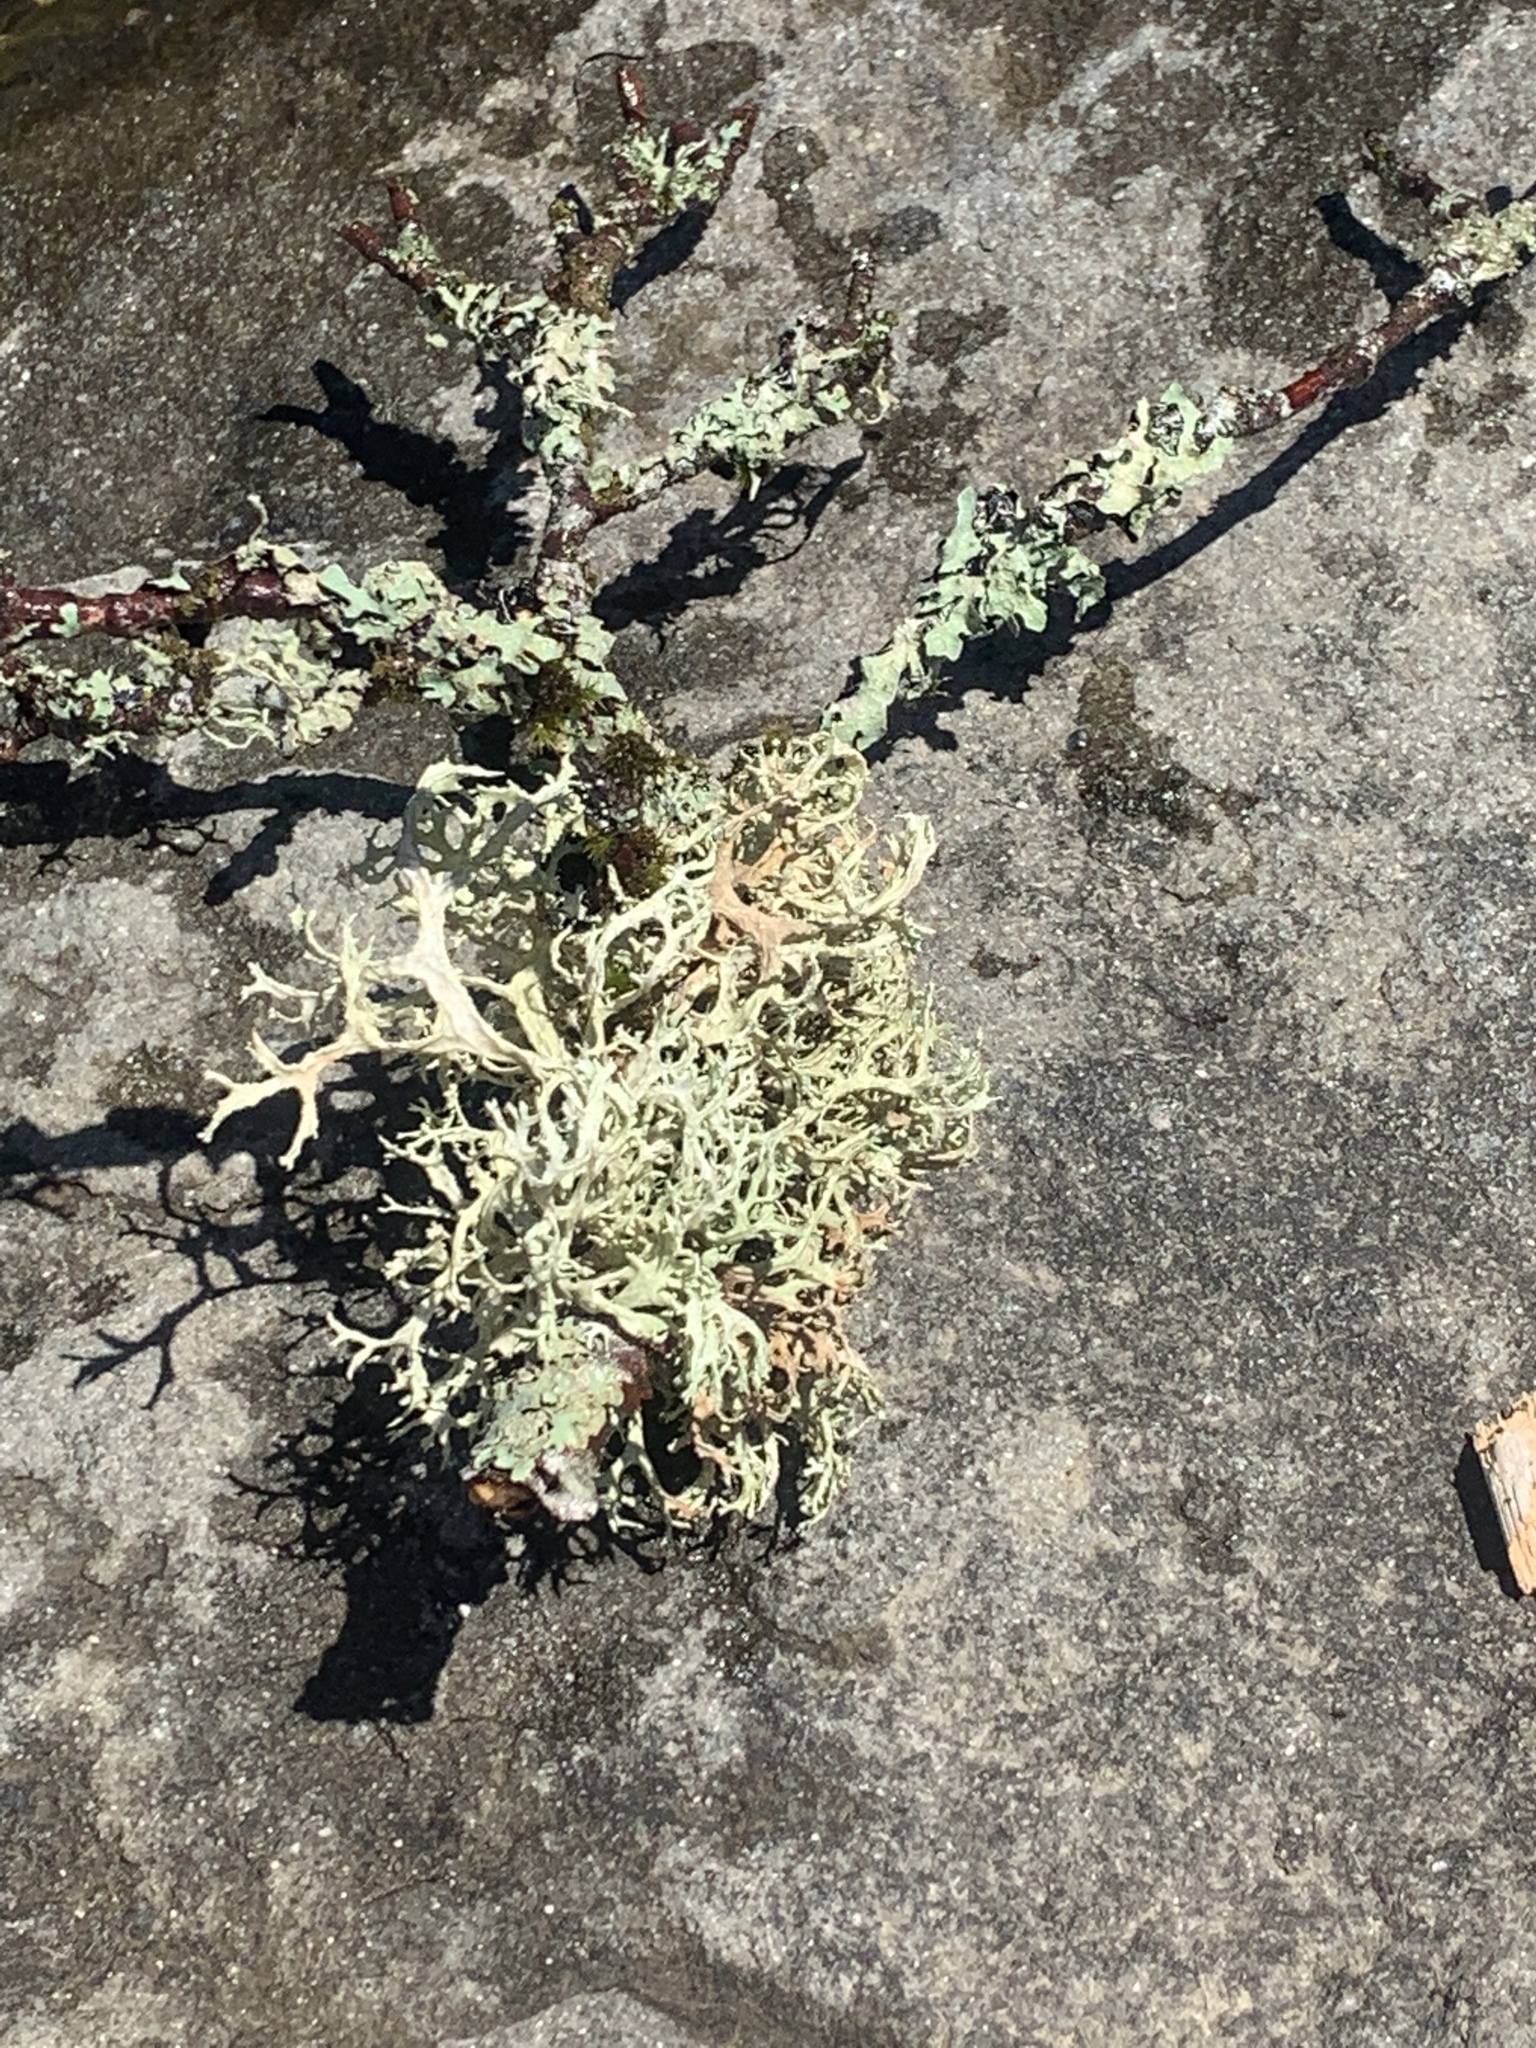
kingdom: Fungi
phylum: Ascomycota
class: Lecanoromycetes
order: Lecanorales
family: Parmeliaceae
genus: Evernia
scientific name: Evernia prunastri
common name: Oak moss
